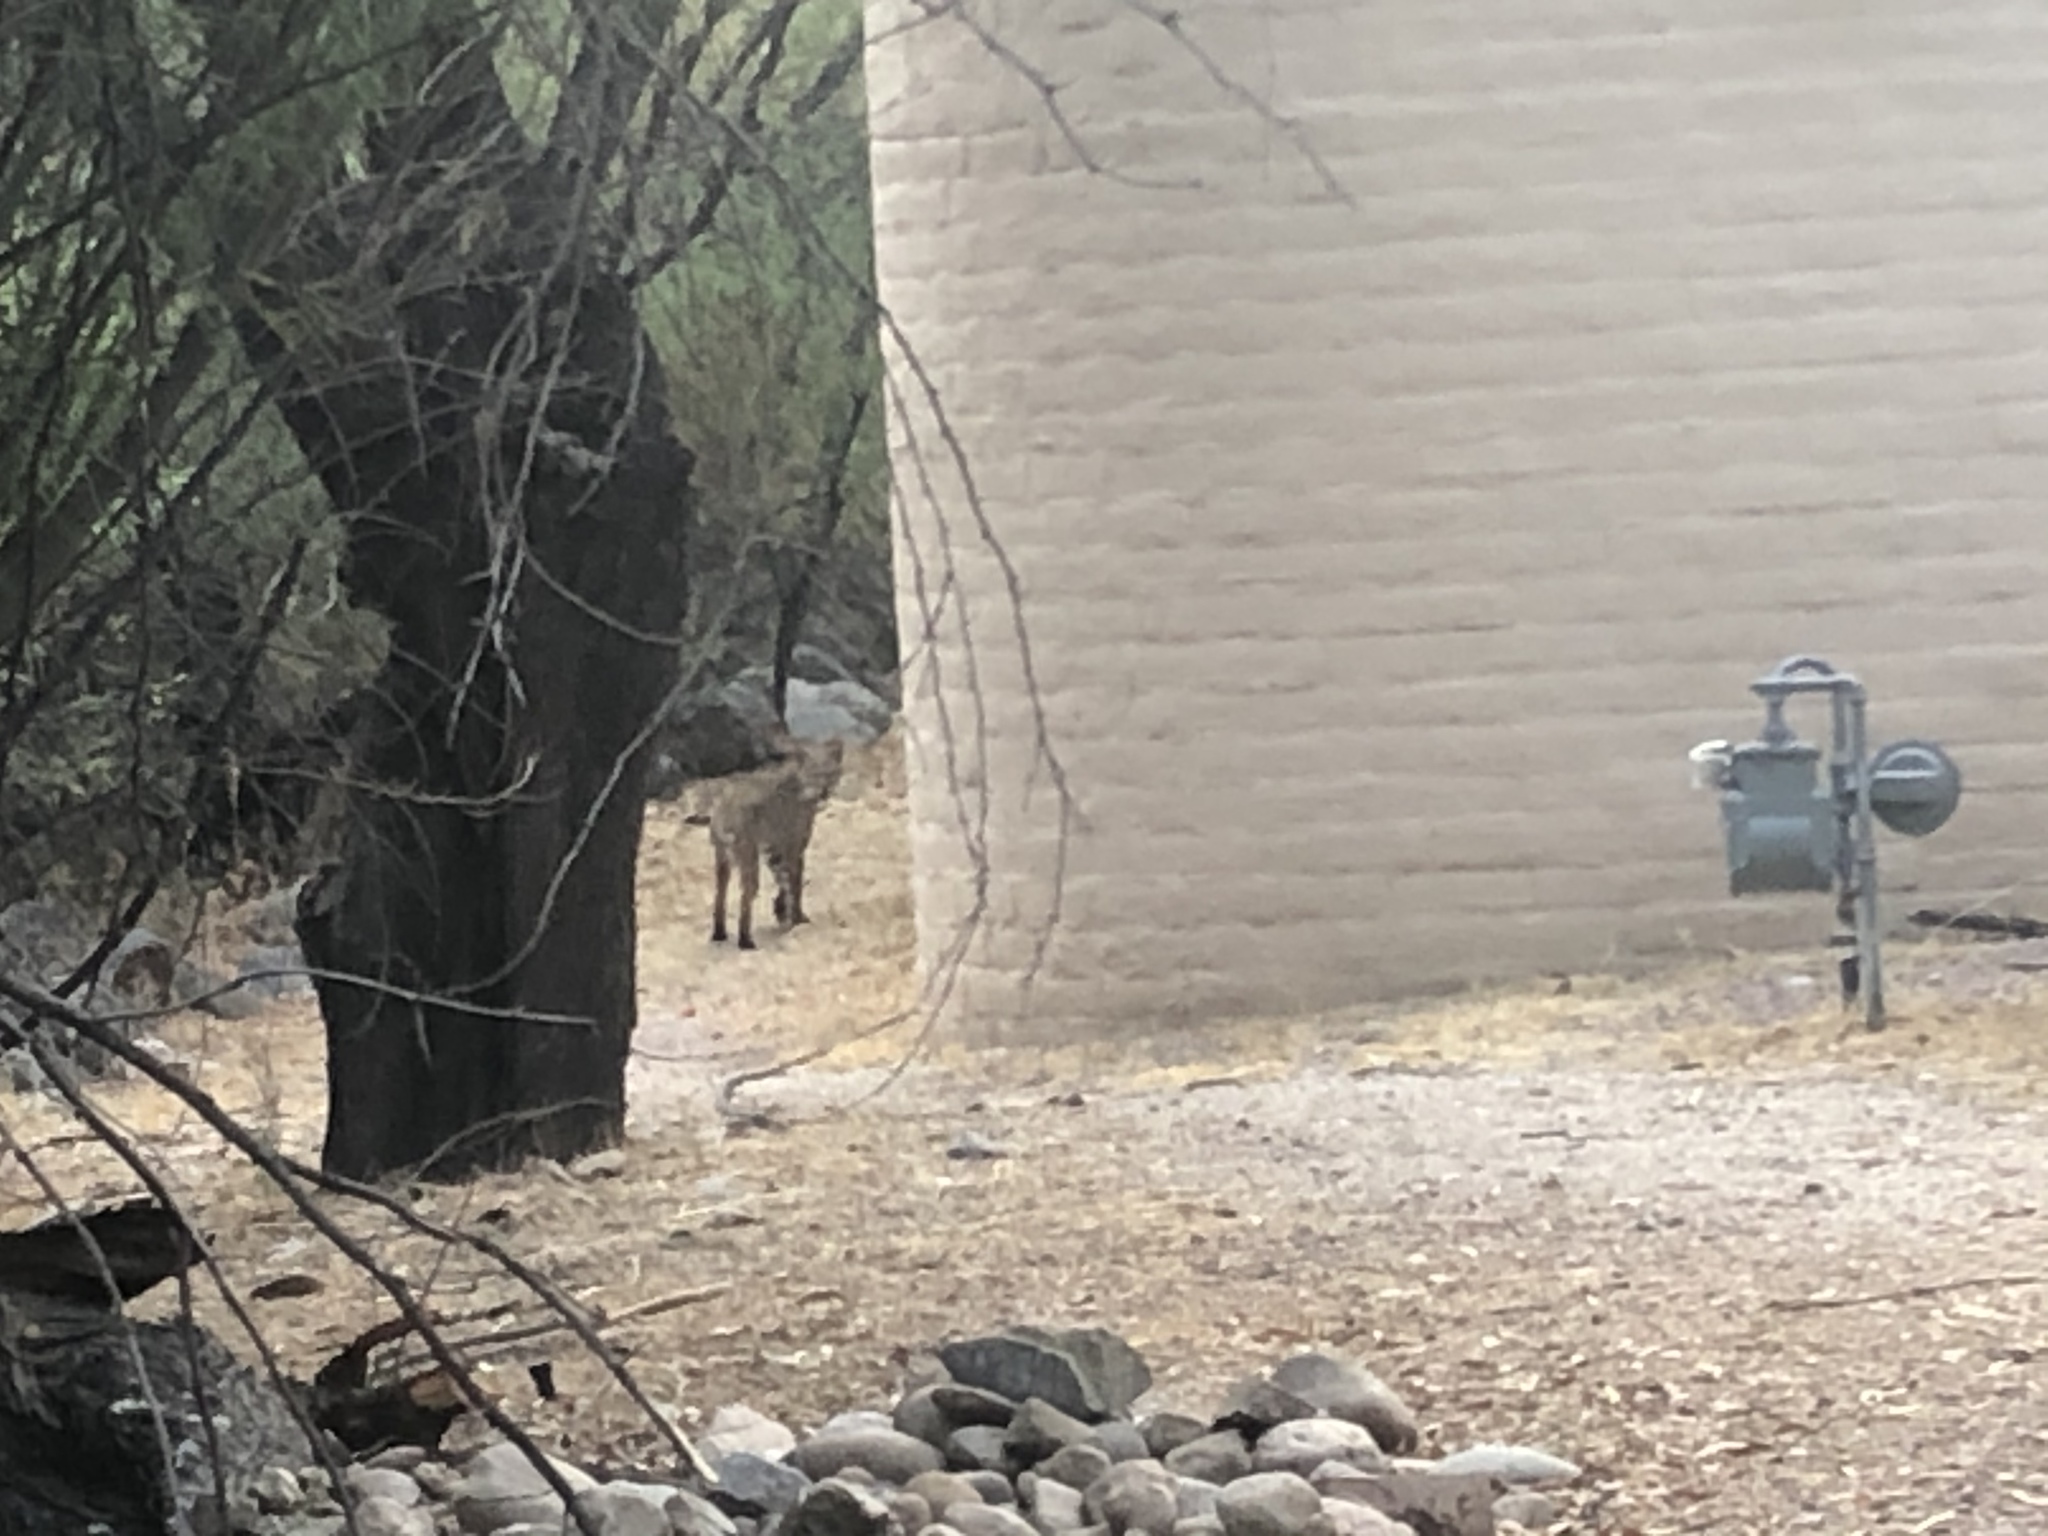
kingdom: Animalia
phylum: Chordata
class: Mammalia
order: Carnivora
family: Felidae
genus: Lynx
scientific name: Lynx rufus
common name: Bobcat
